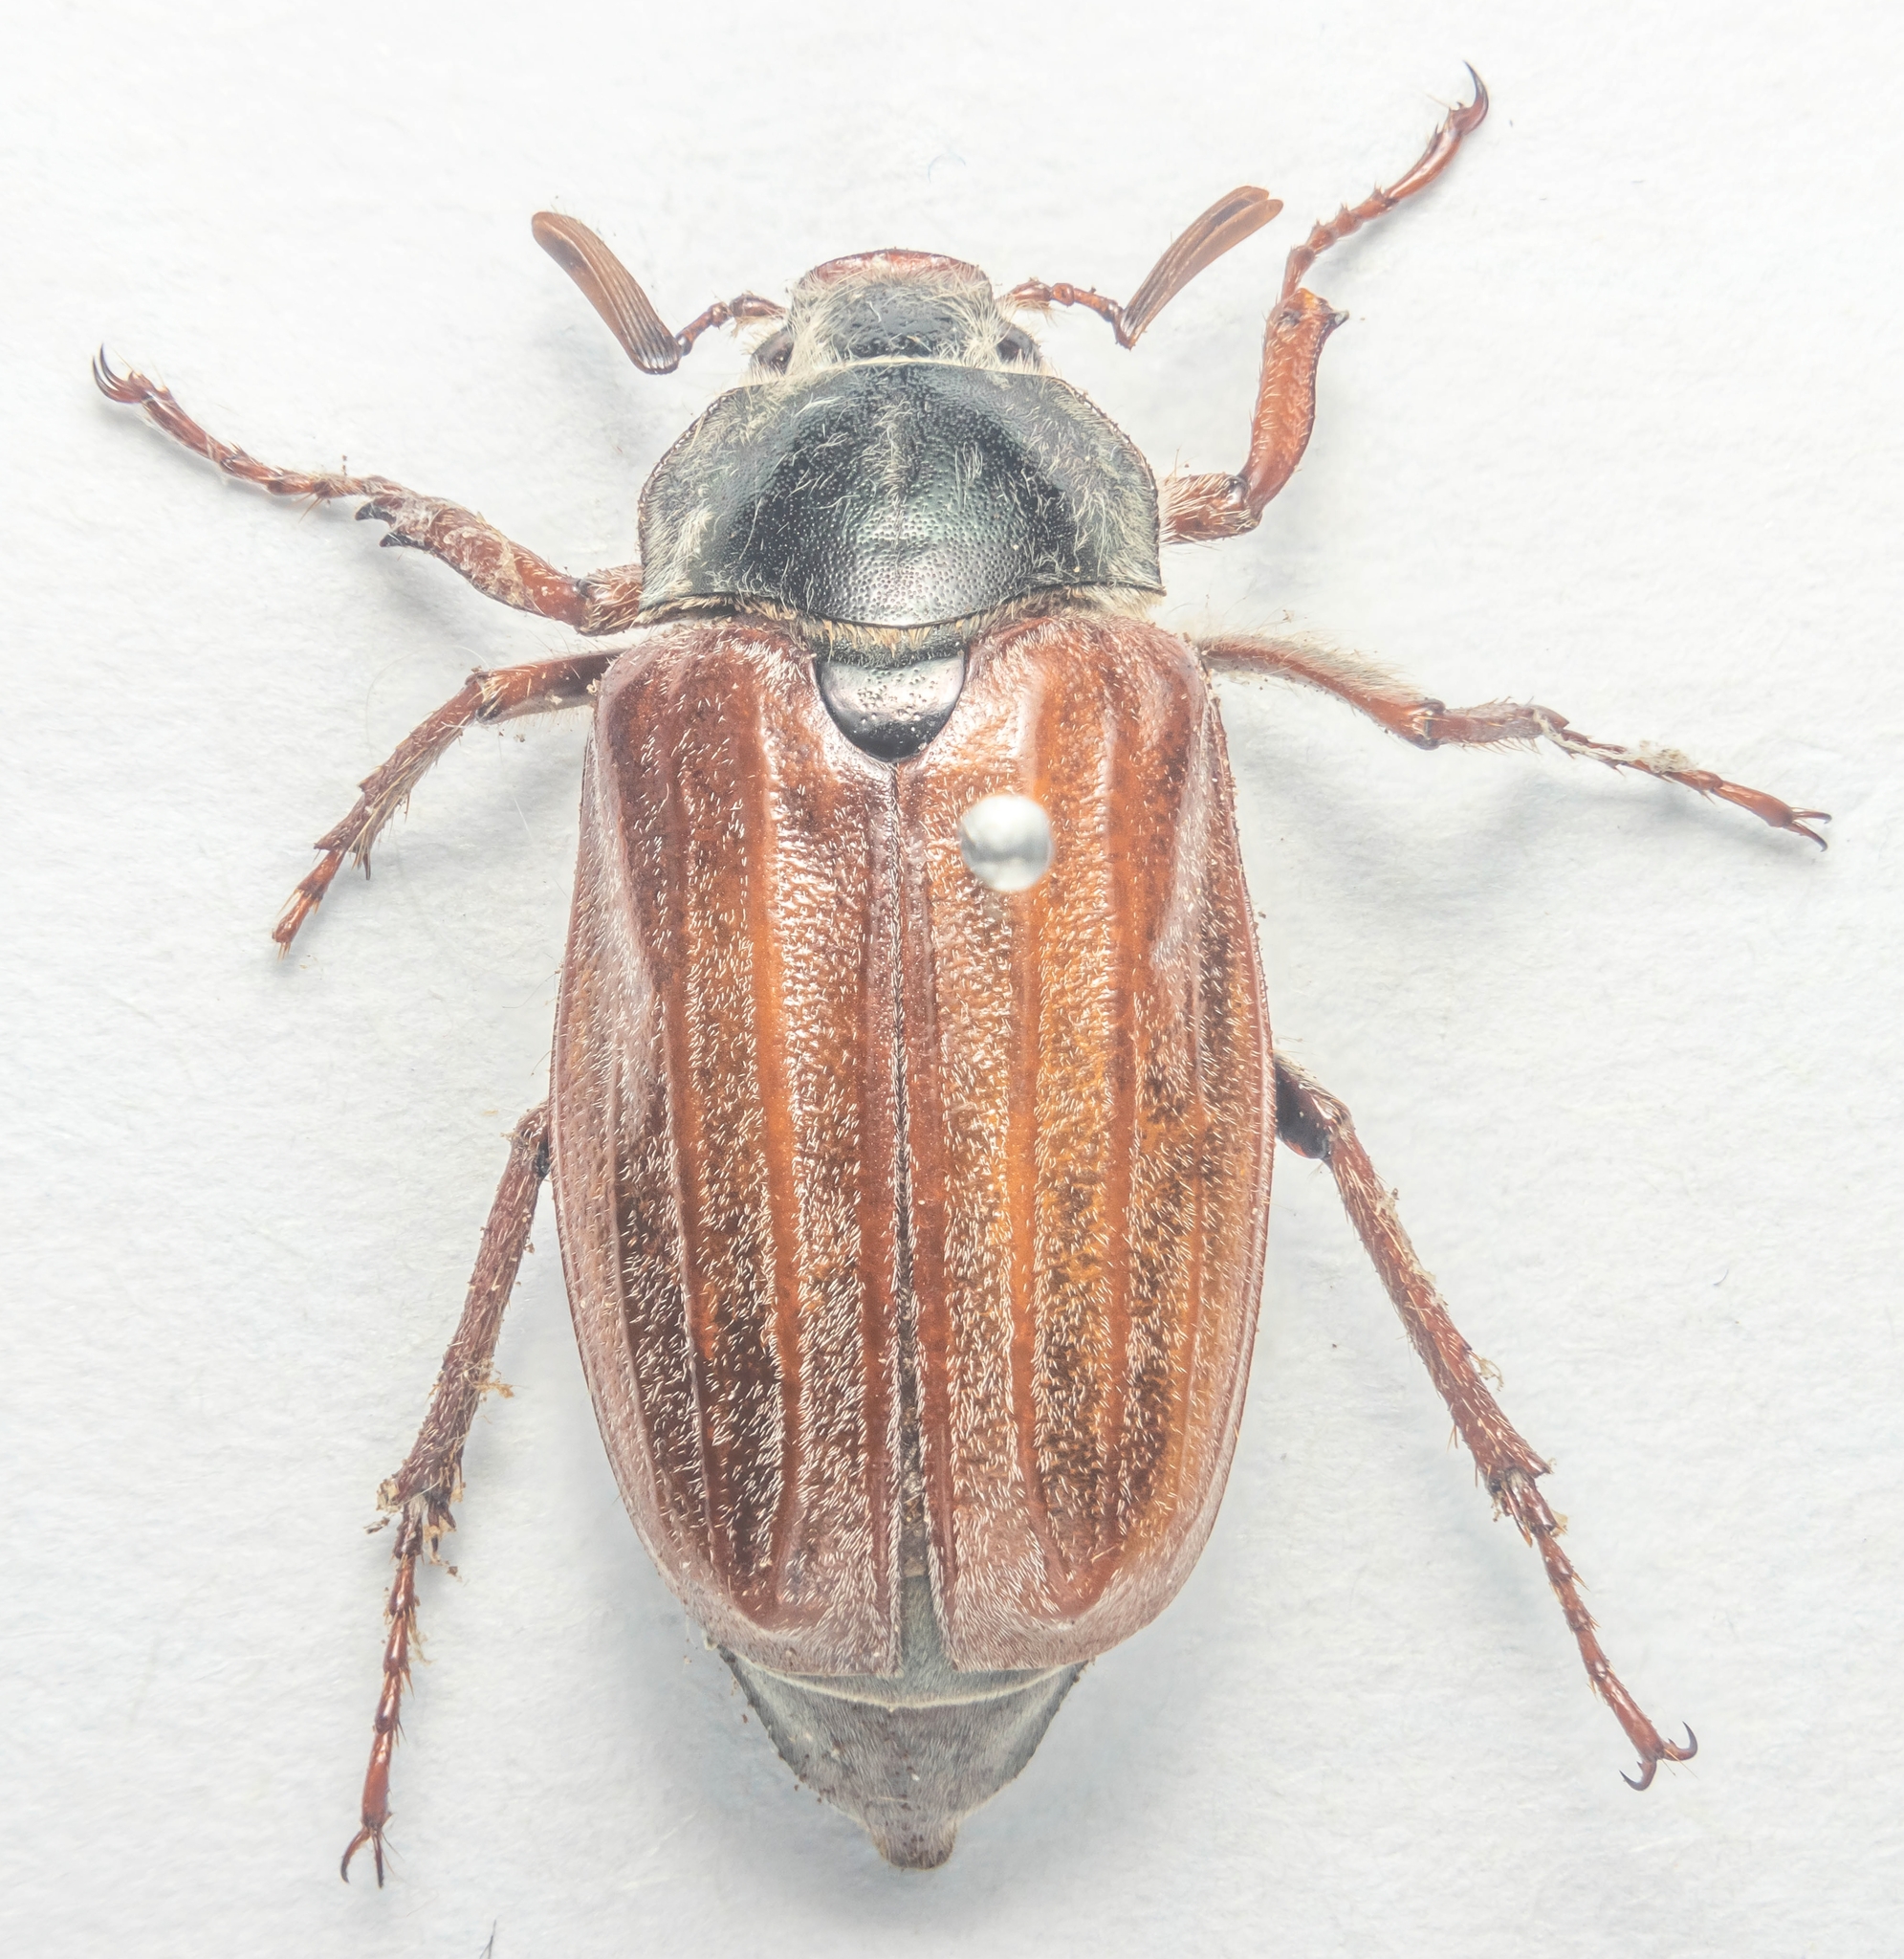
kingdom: Animalia
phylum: Arthropoda
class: Insecta
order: Coleoptera
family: Scarabaeidae
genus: Melolontha
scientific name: Melolontha melolontha
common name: Cockchafer maybeetle
